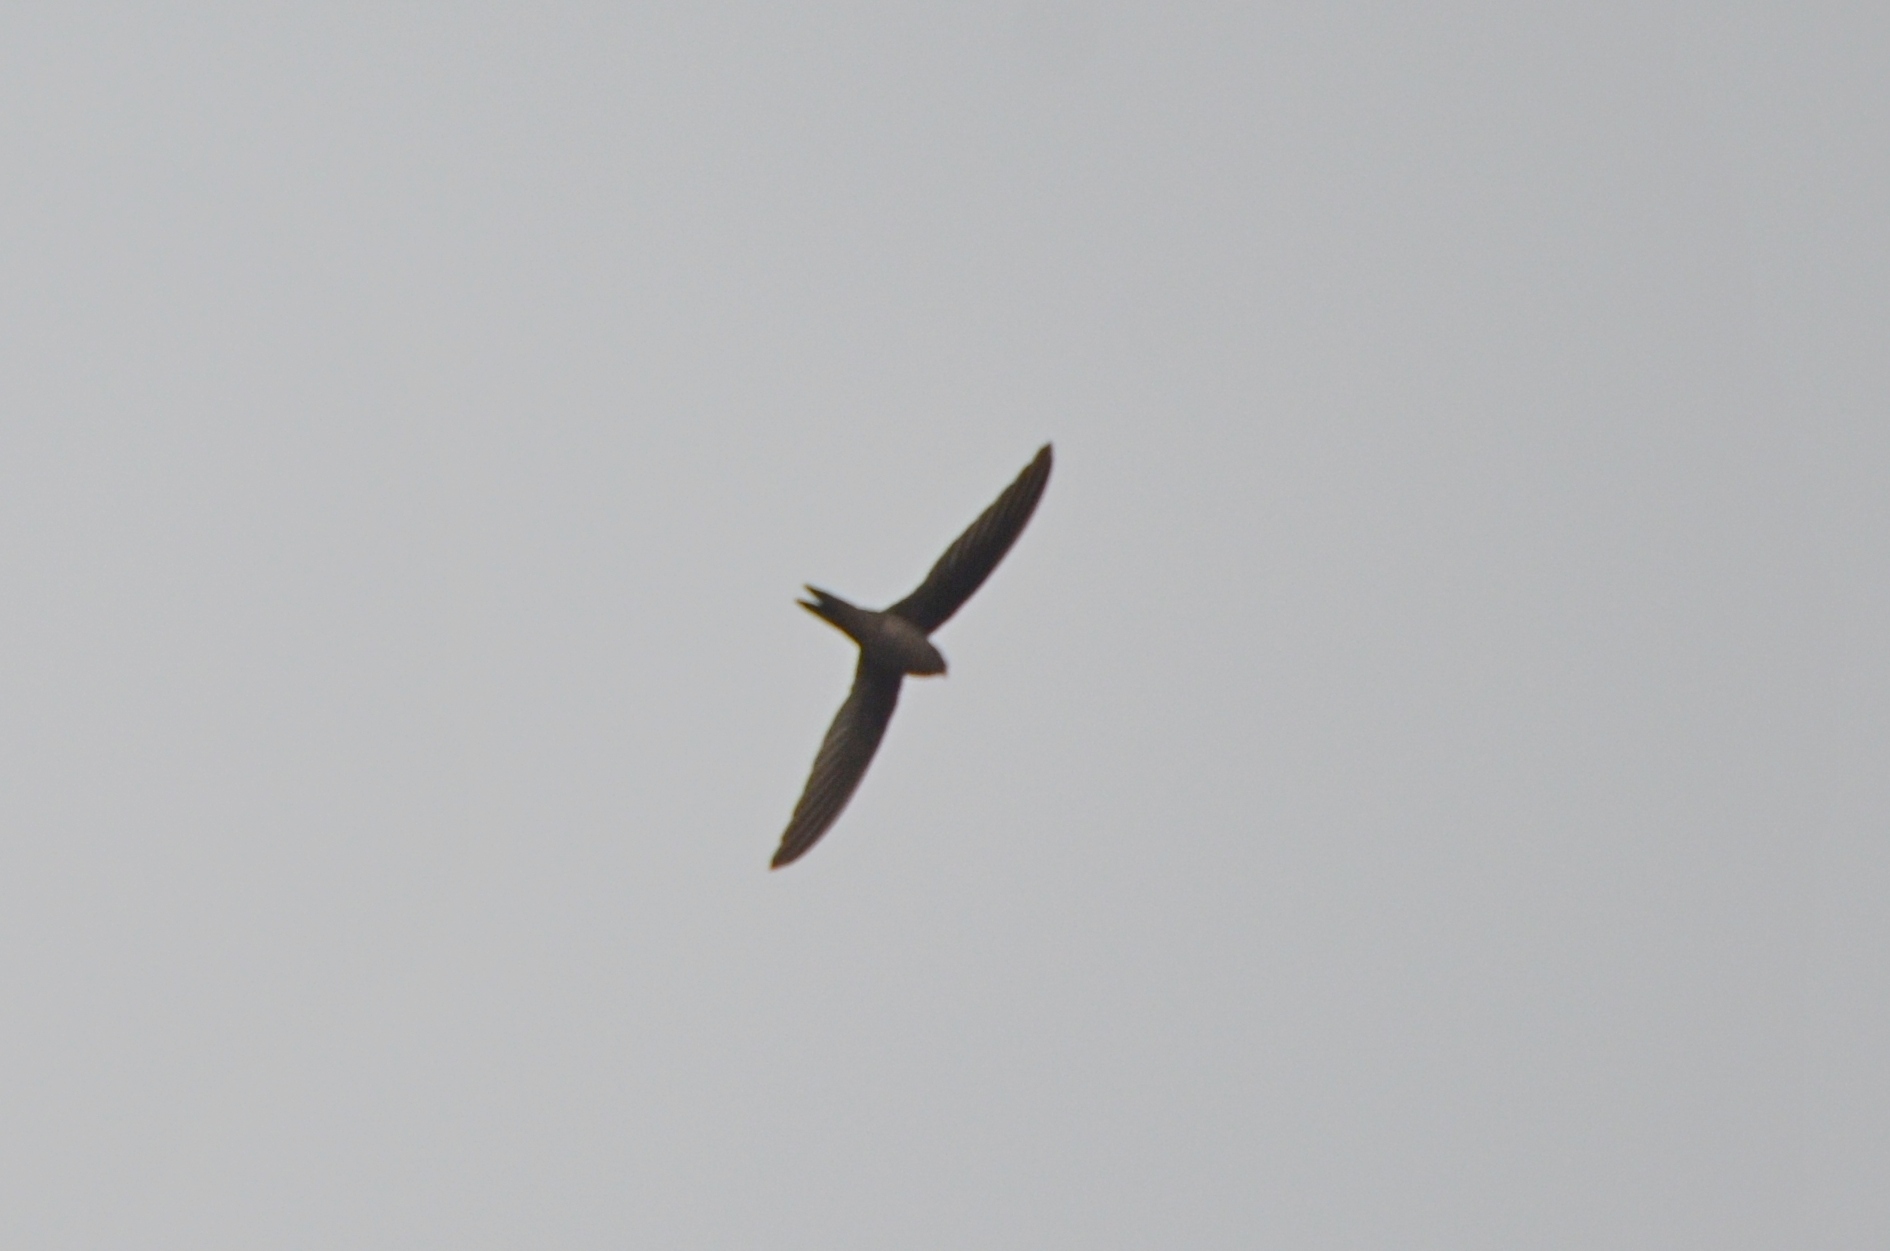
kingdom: Animalia
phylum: Chordata
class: Aves
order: Apodiformes
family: Apodidae
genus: Cypsiurus
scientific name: Cypsiurus balasiensis
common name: Asian palm swift
